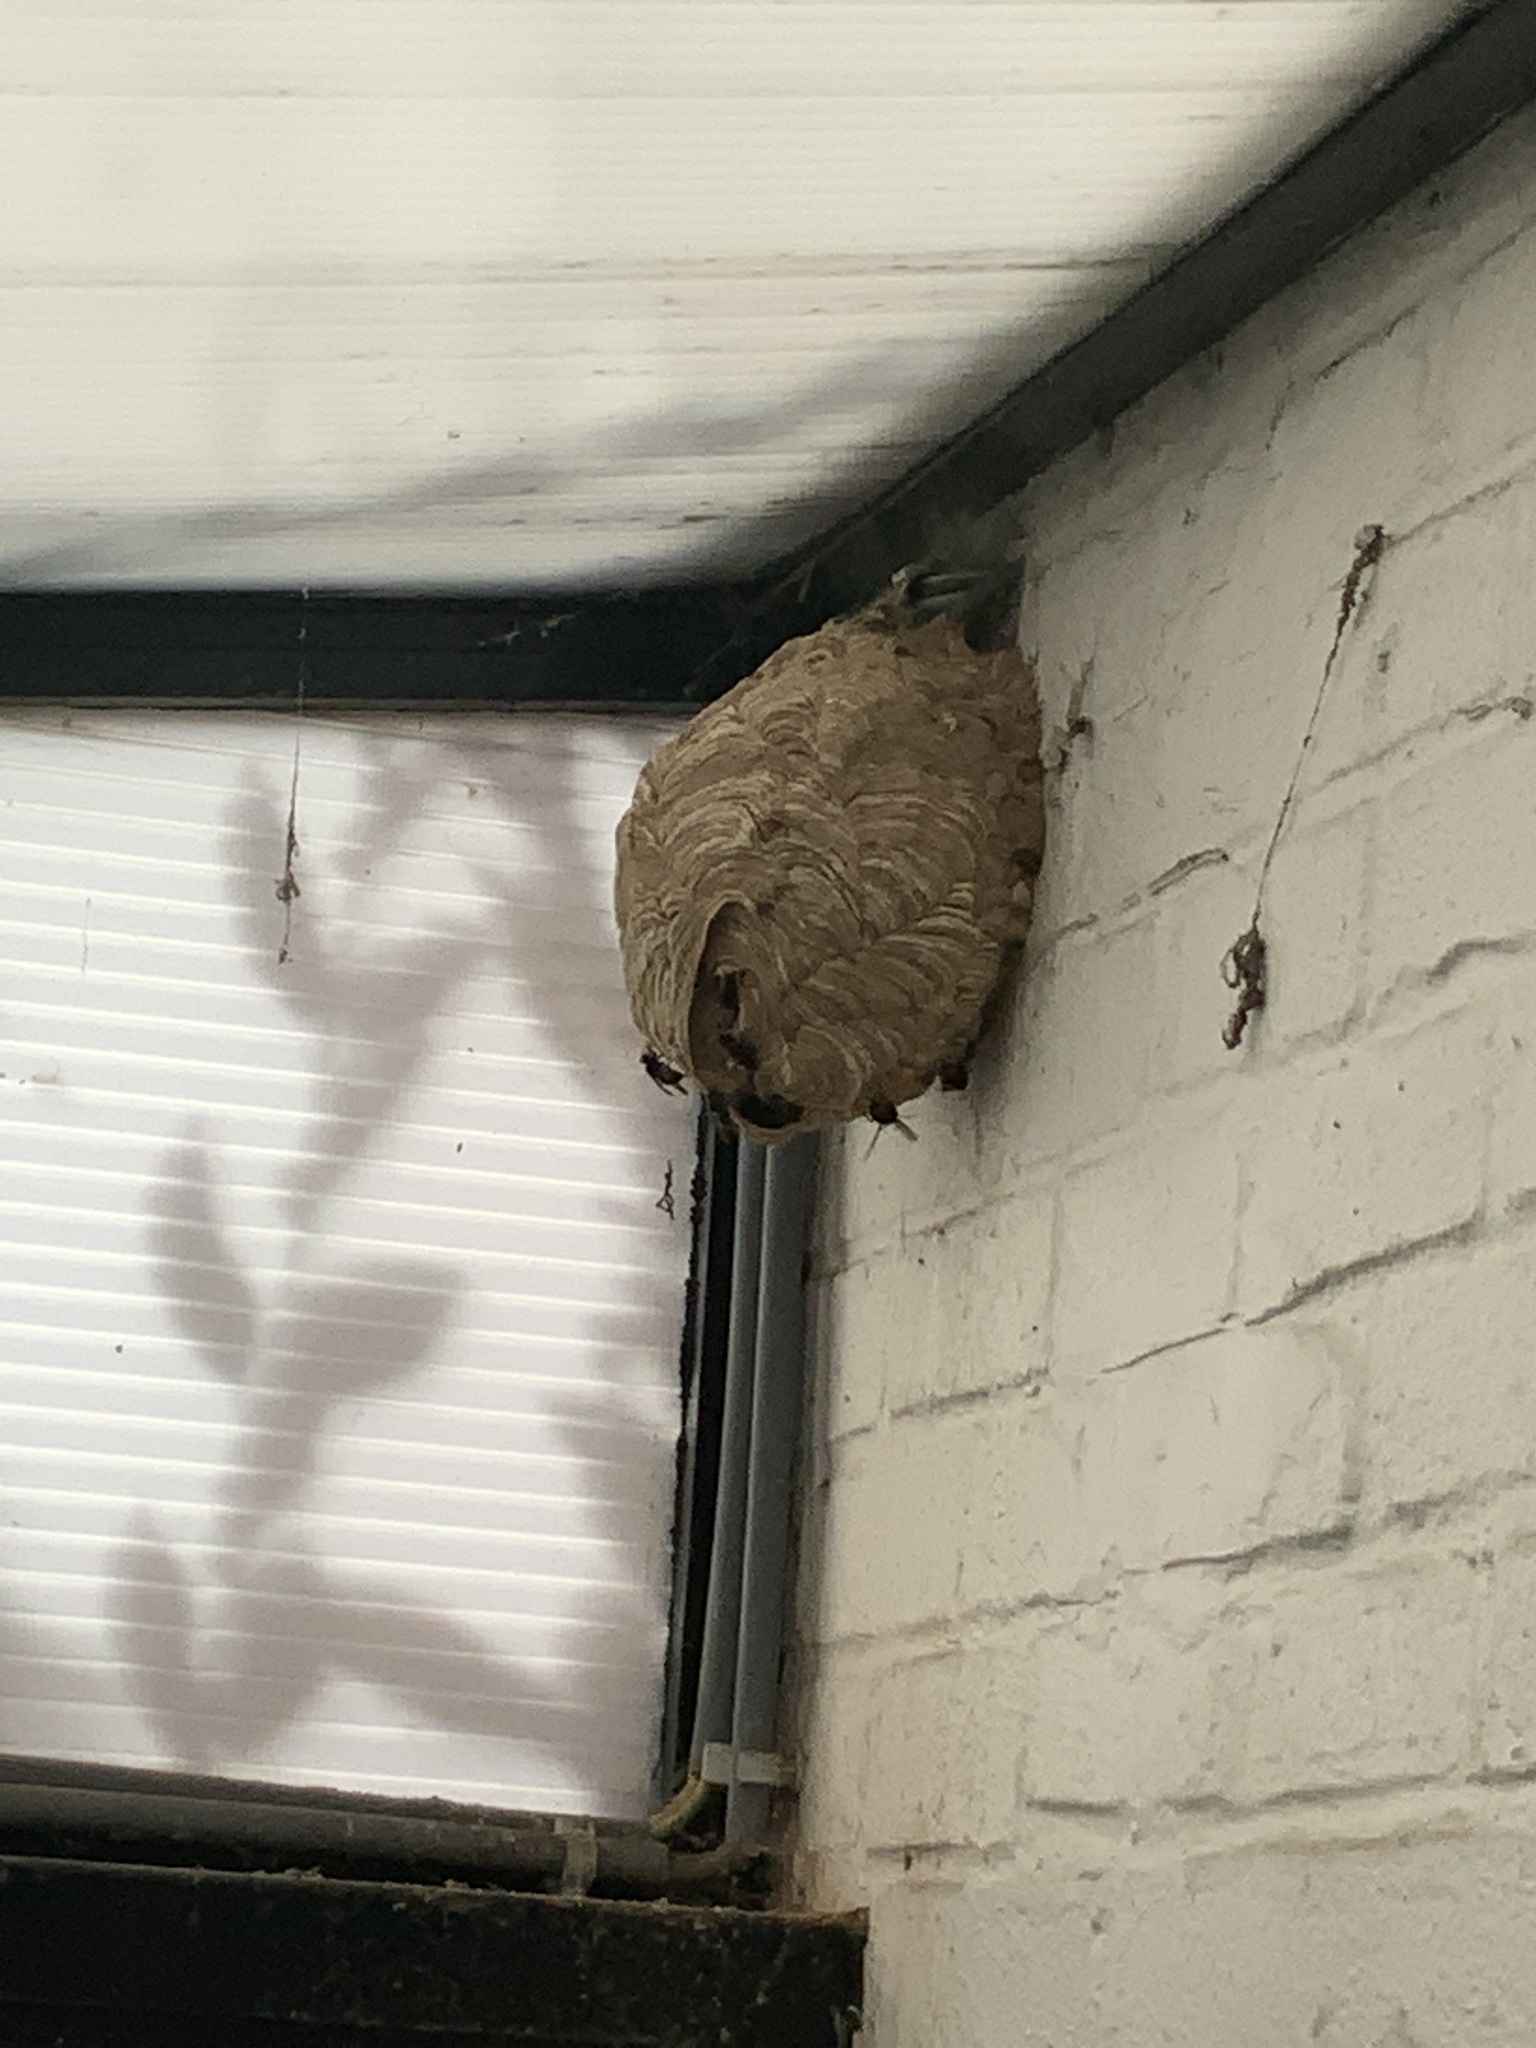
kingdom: Animalia
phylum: Arthropoda
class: Insecta
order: Hymenoptera
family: Vespidae
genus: Vespa
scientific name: Vespa velutina
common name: Asian hornet
